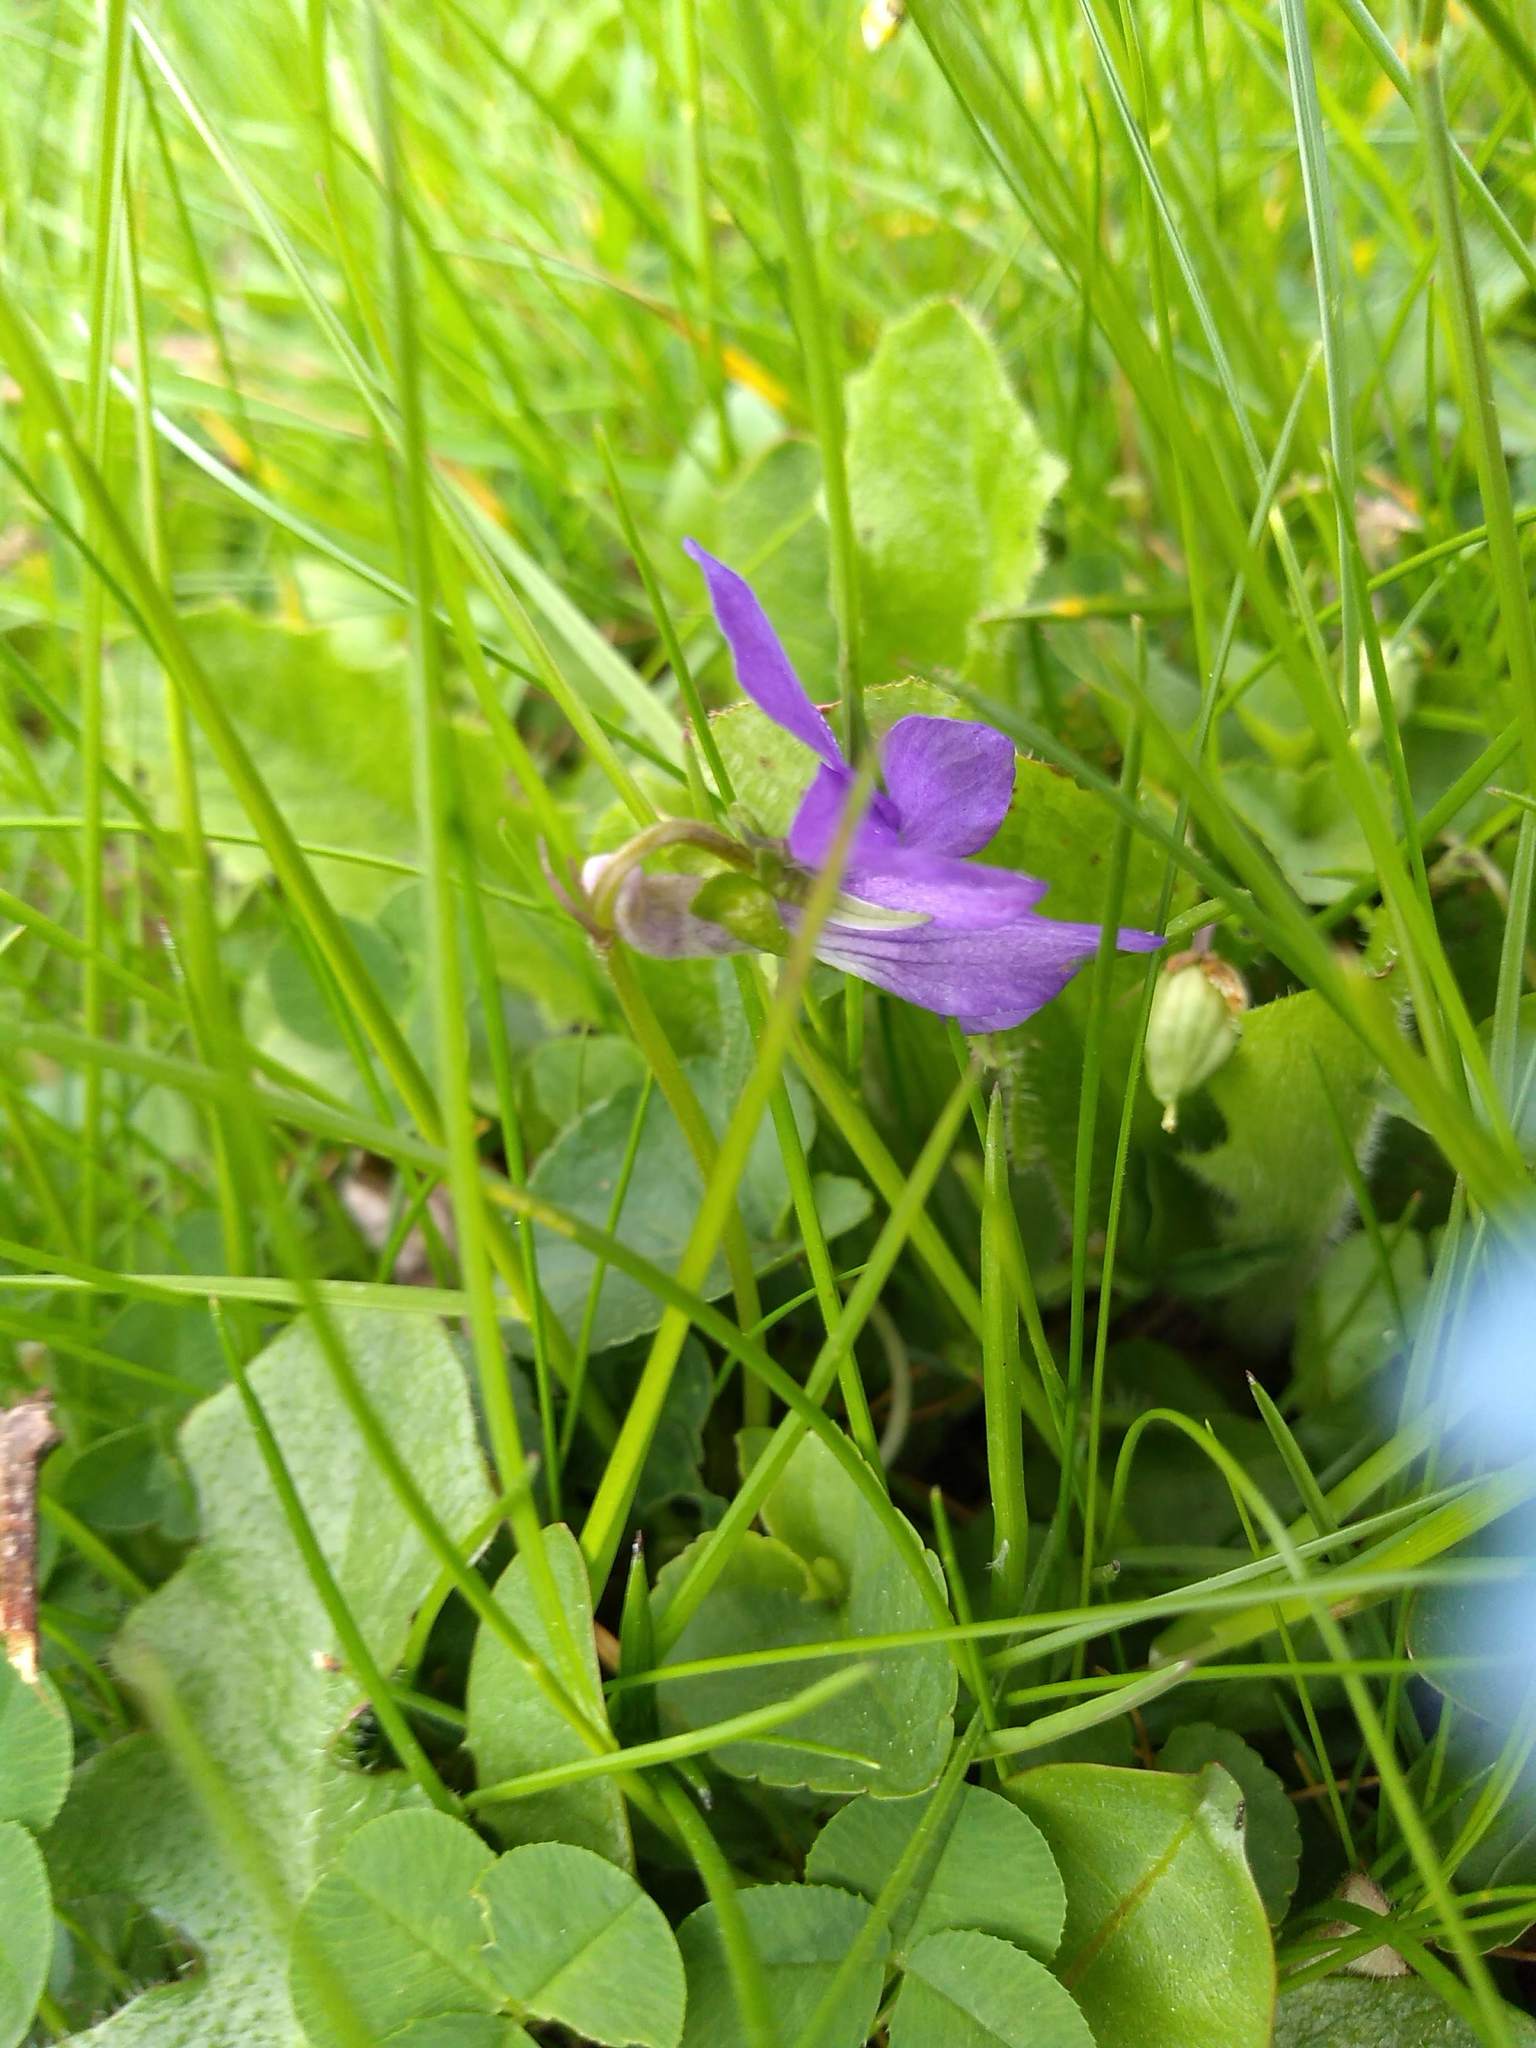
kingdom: Plantae
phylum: Tracheophyta
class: Magnoliopsida
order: Malpighiales
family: Violaceae
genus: Viola
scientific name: Viola riviniana
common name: Common dog-violet
